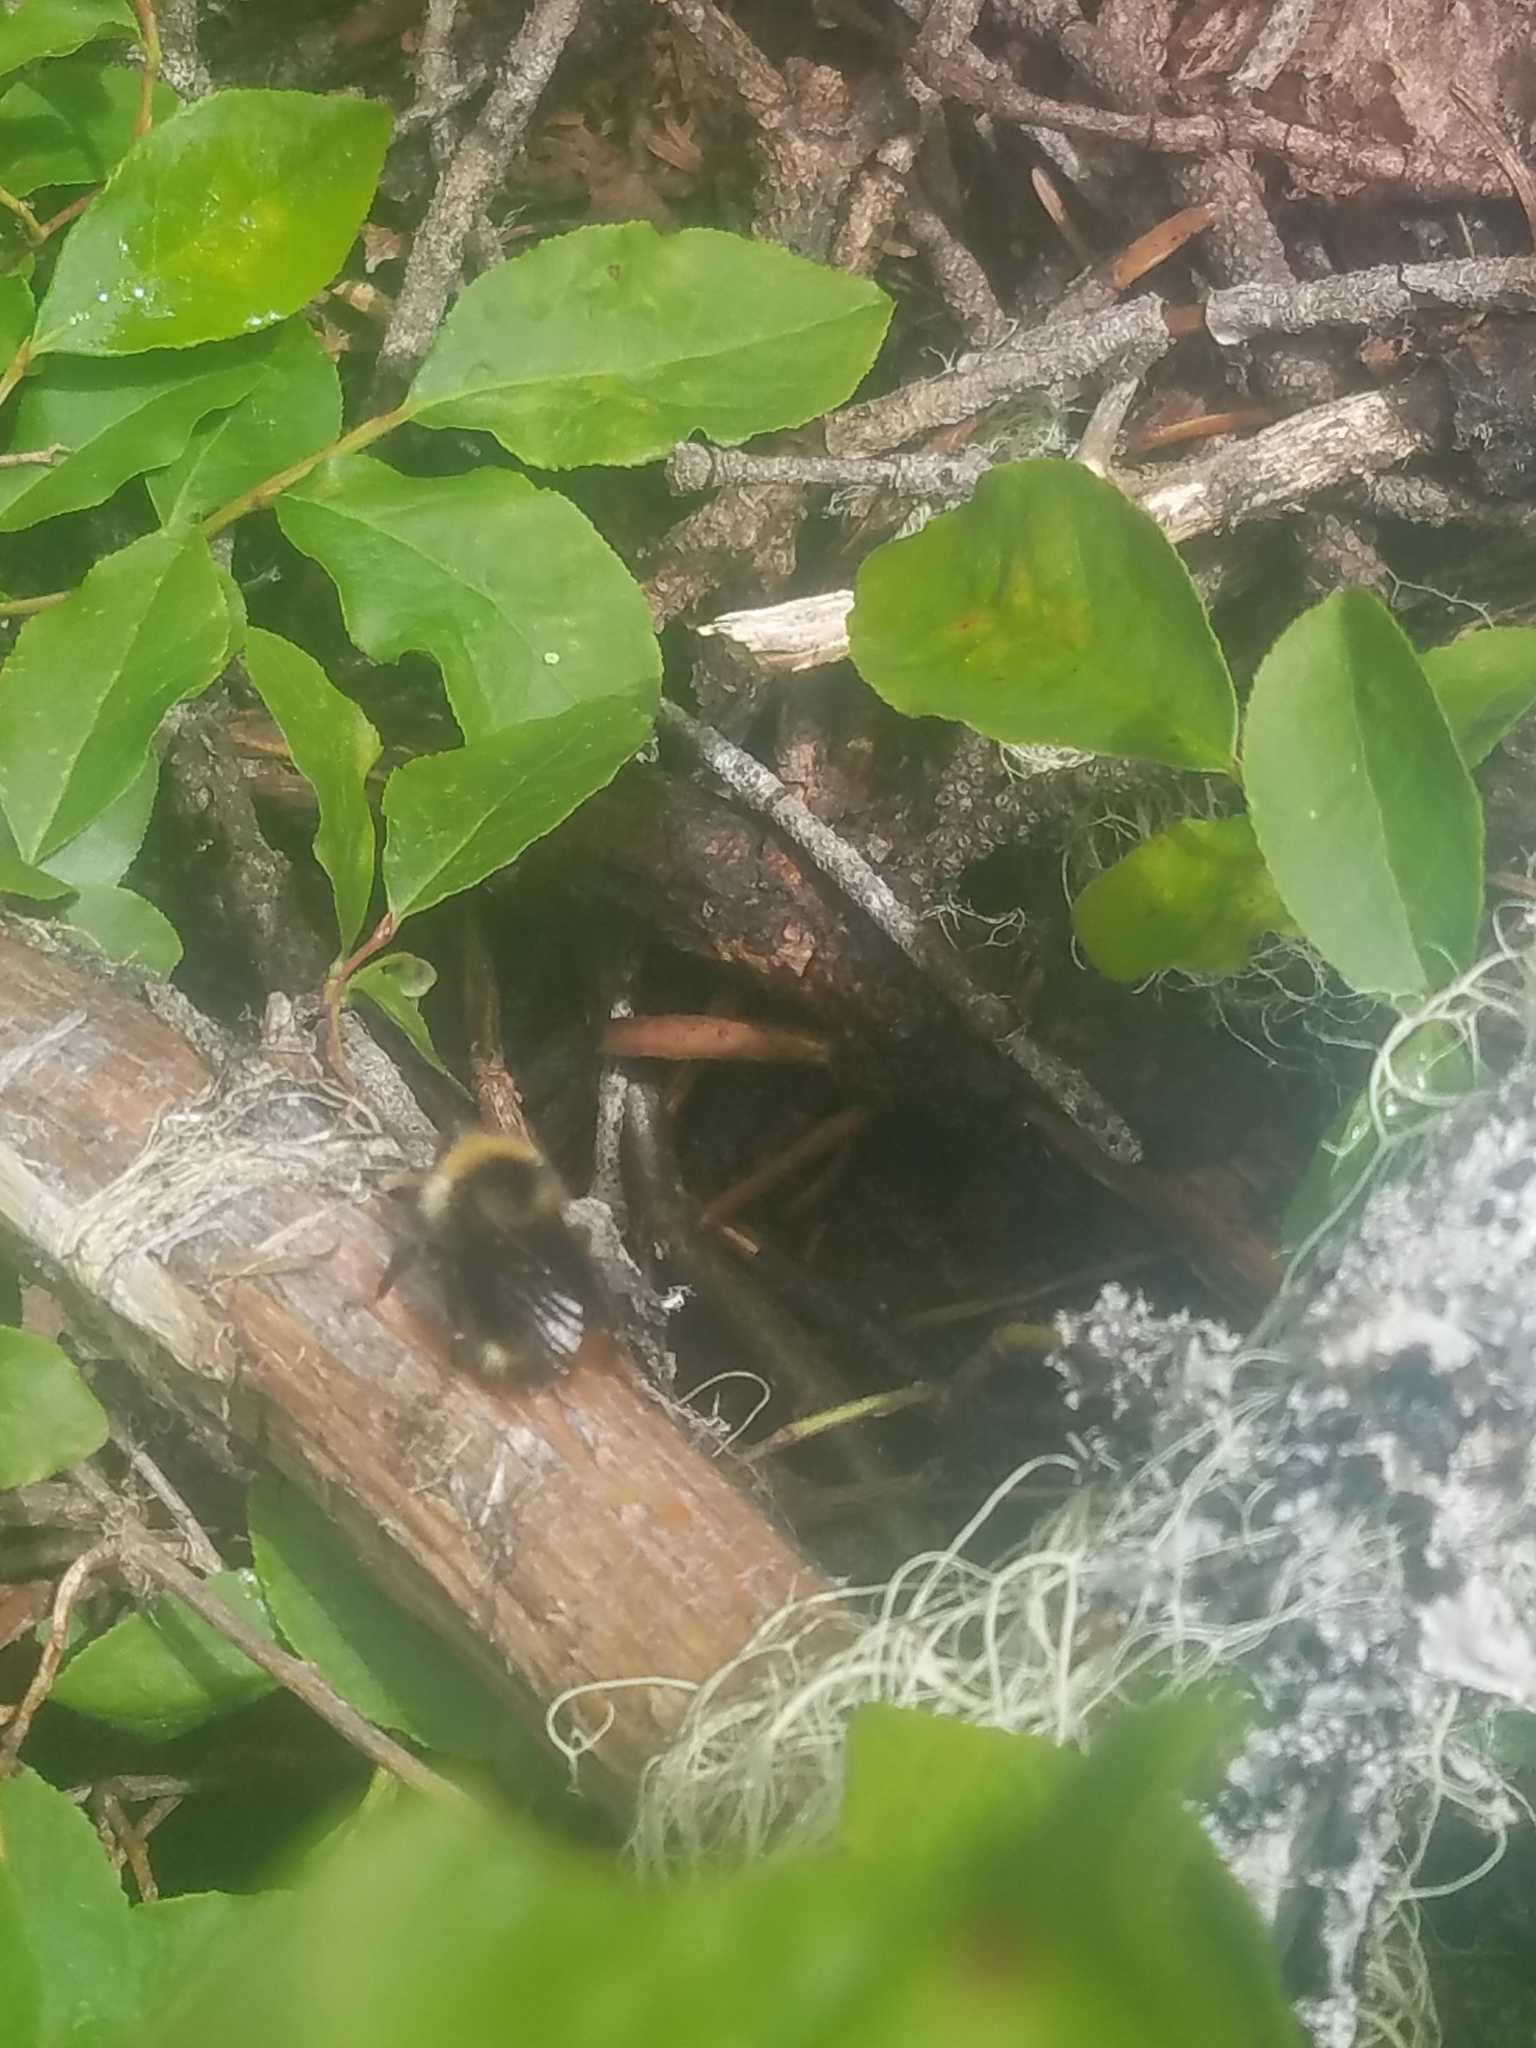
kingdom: Animalia
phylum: Arthropoda
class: Insecta
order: Hymenoptera
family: Apidae
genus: Bombus
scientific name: Bombus
